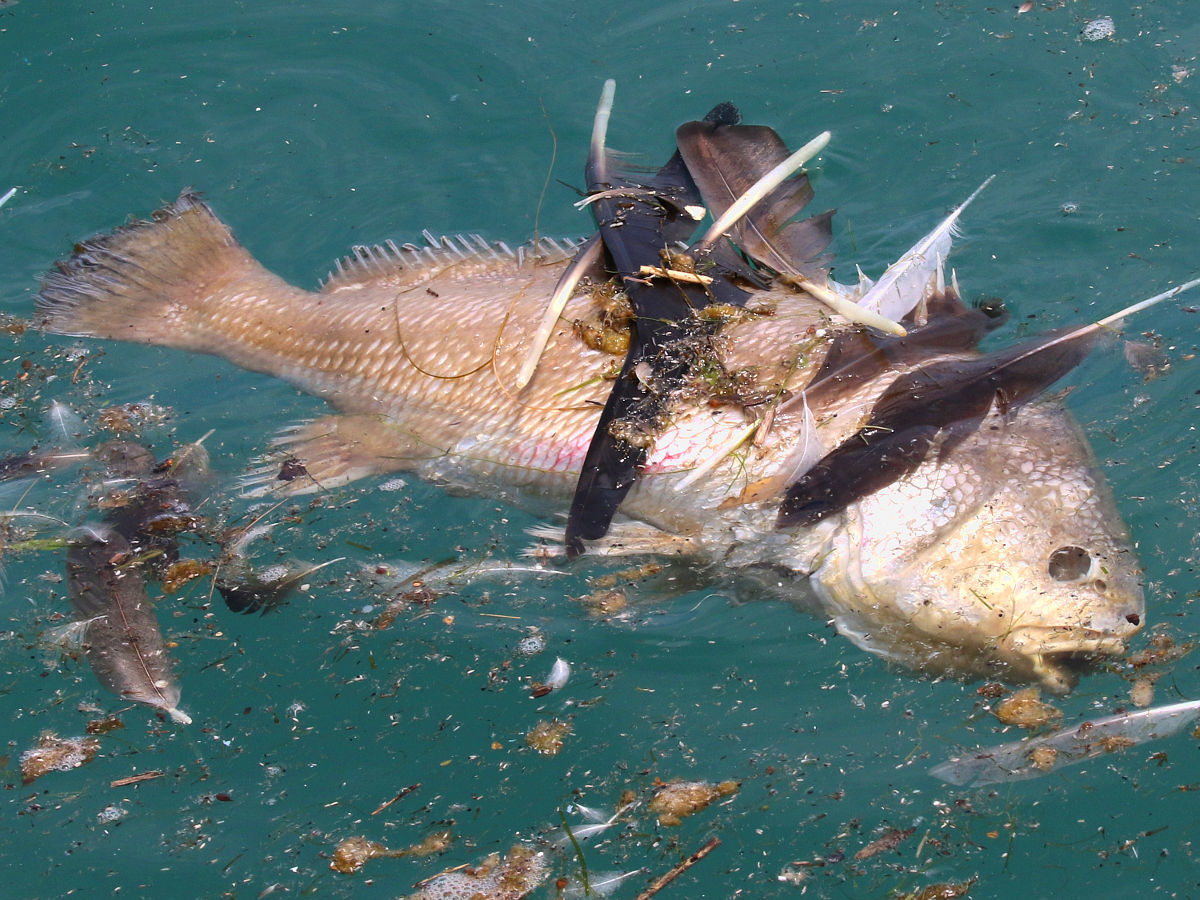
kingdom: Animalia
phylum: Chordata
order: Perciformes
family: Sciaenidae
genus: Aplodinotus
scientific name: Aplodinotus grunniens
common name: Freshwater drum
